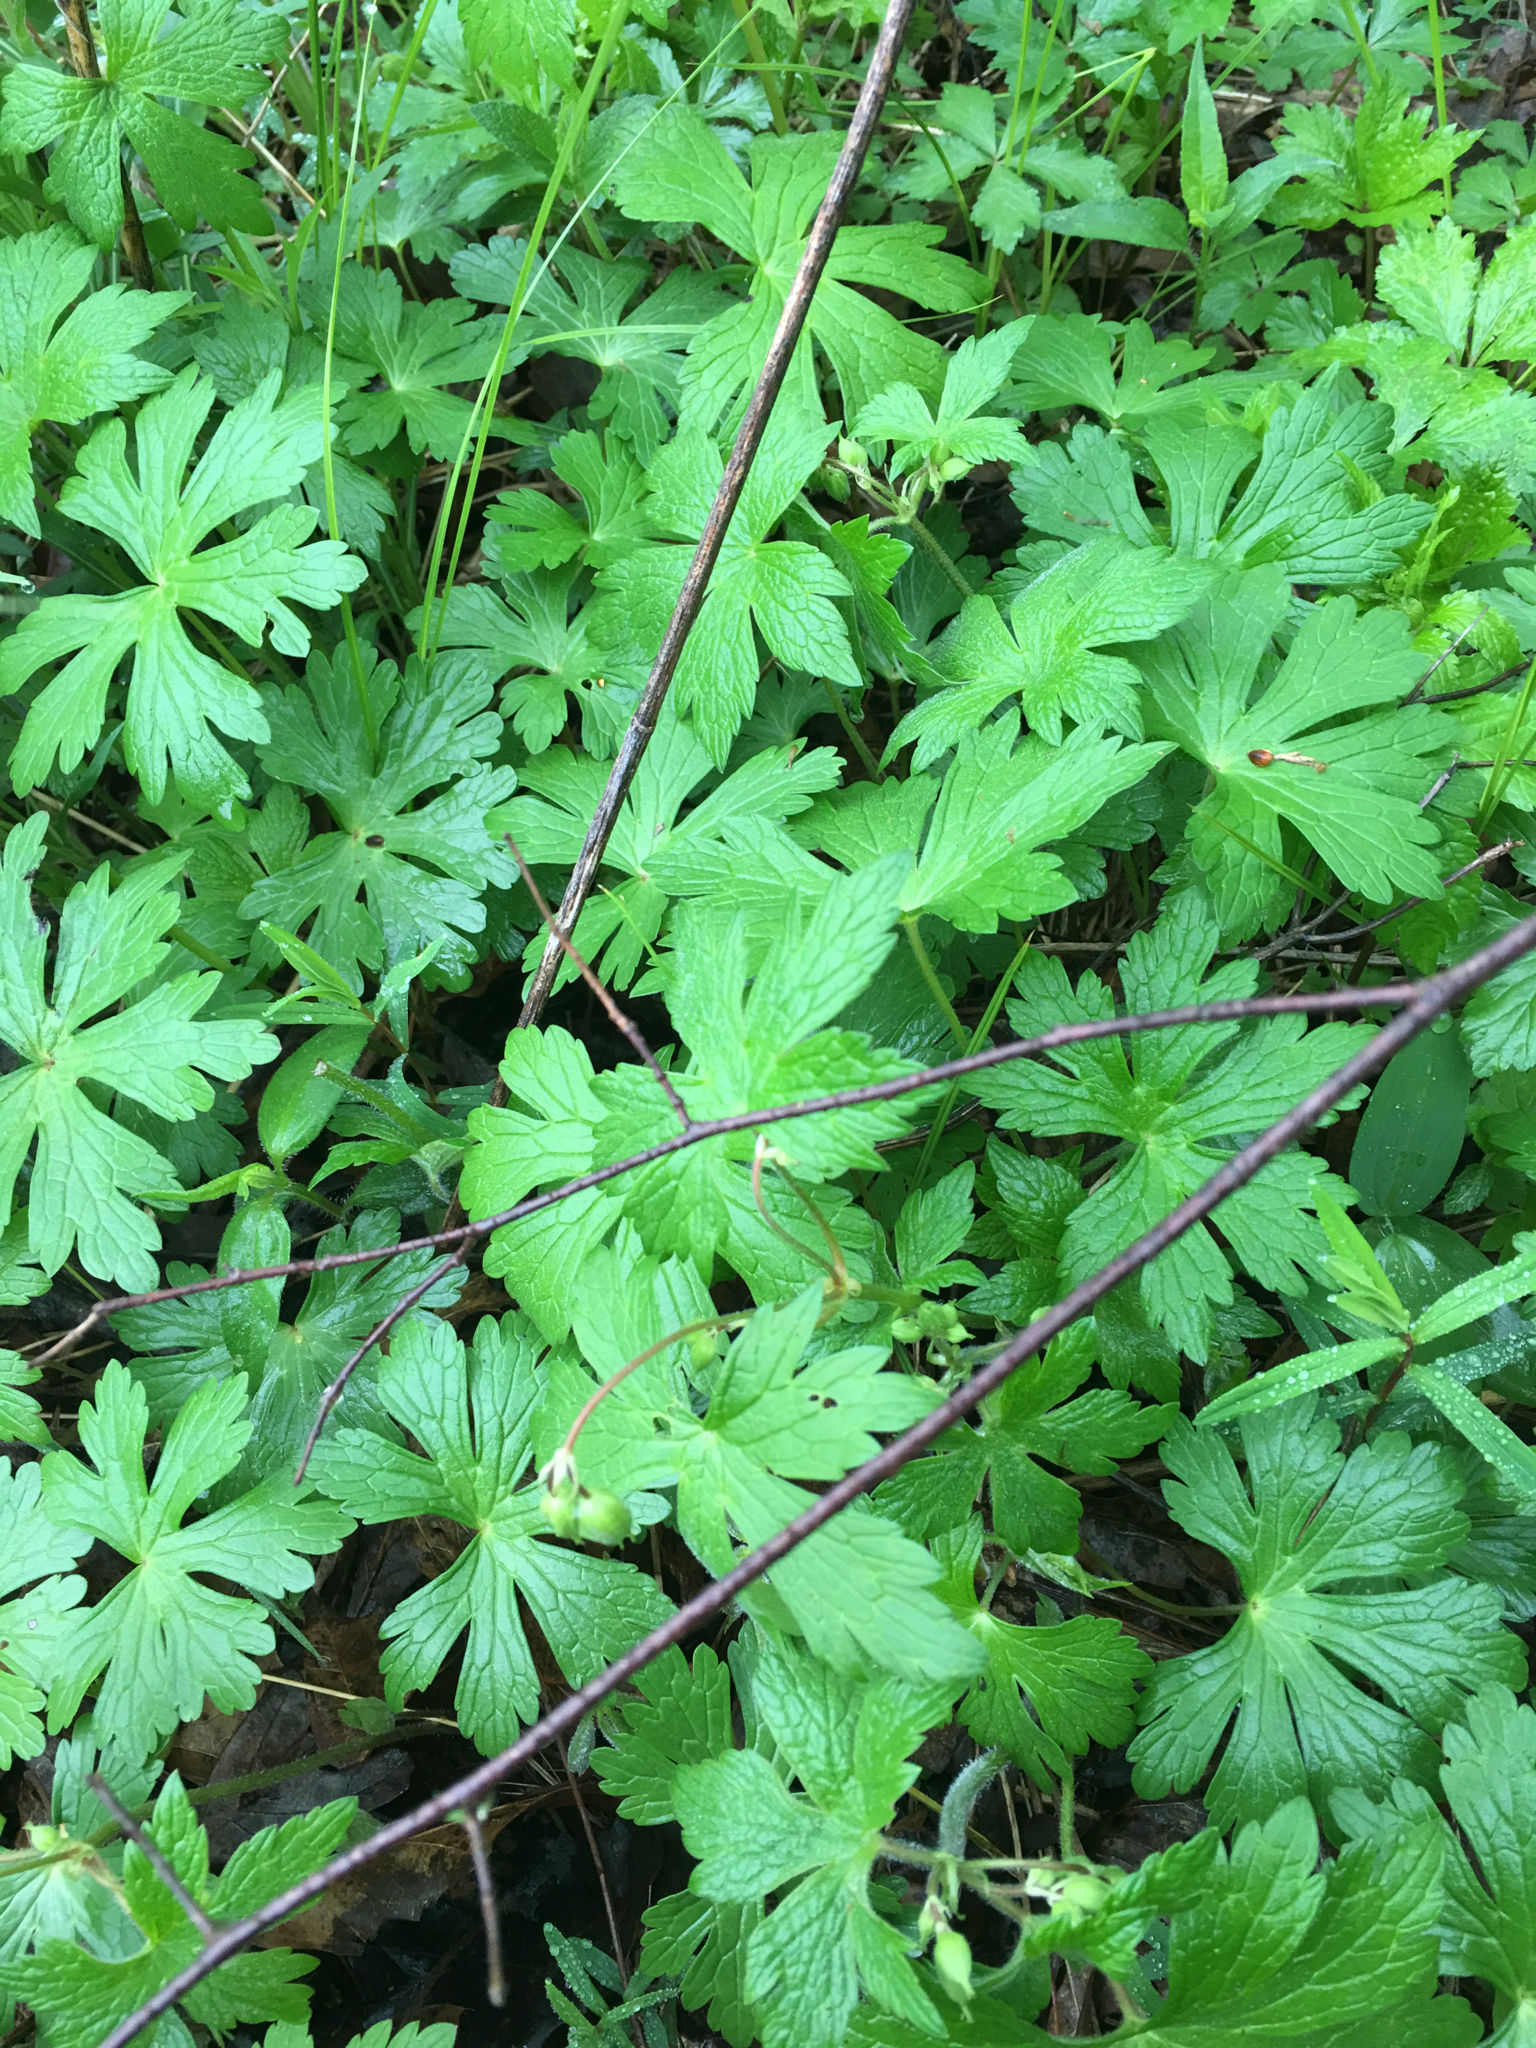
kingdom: Plantae
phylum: Tracheophyta
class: Magnoliopsida
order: Geraniales
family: Geraniaceae
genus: Geranium
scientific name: Geranium maculatum
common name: Spotted geranium
